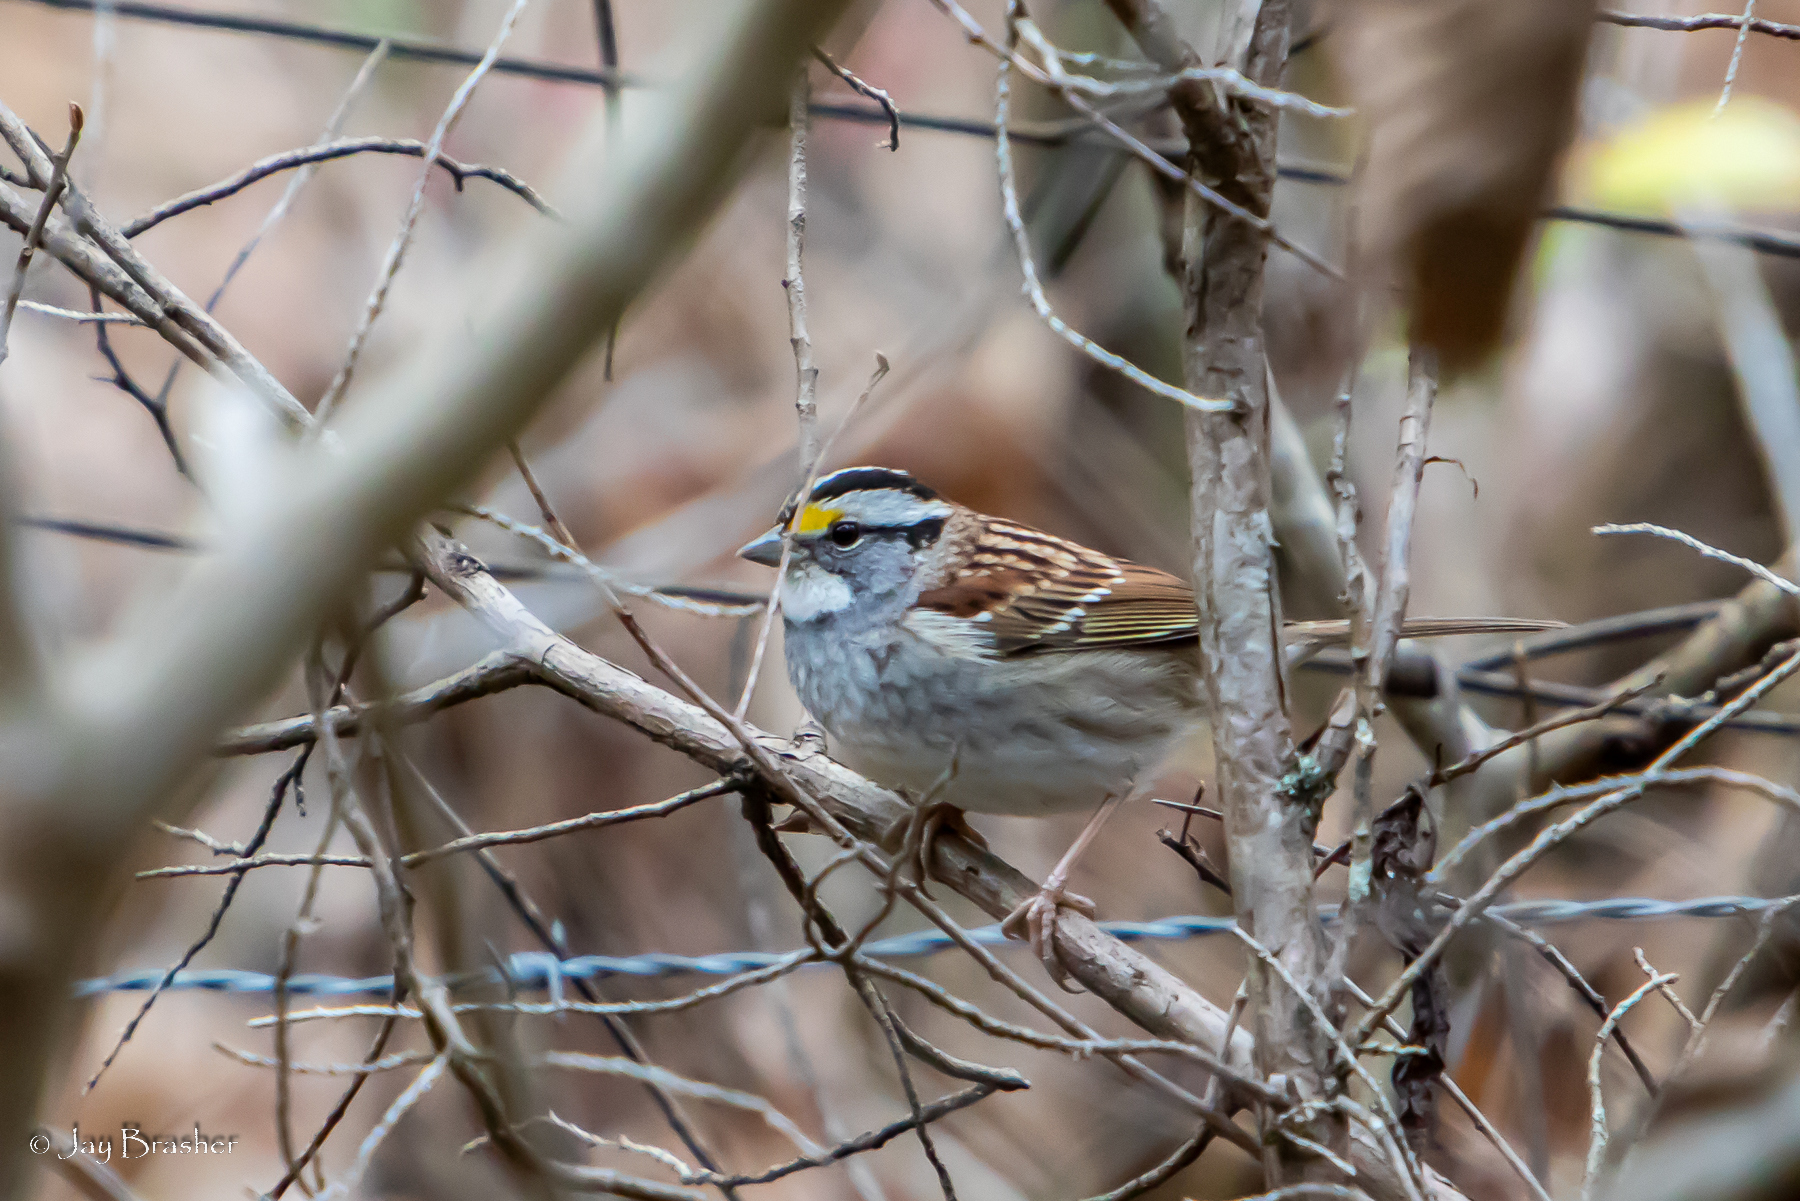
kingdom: Animalia
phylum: Chordata
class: Aves
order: Passeriformes
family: Passerellidae
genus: Zonotrichia
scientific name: Zonotrichia albicollis
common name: White-throated sparrow
